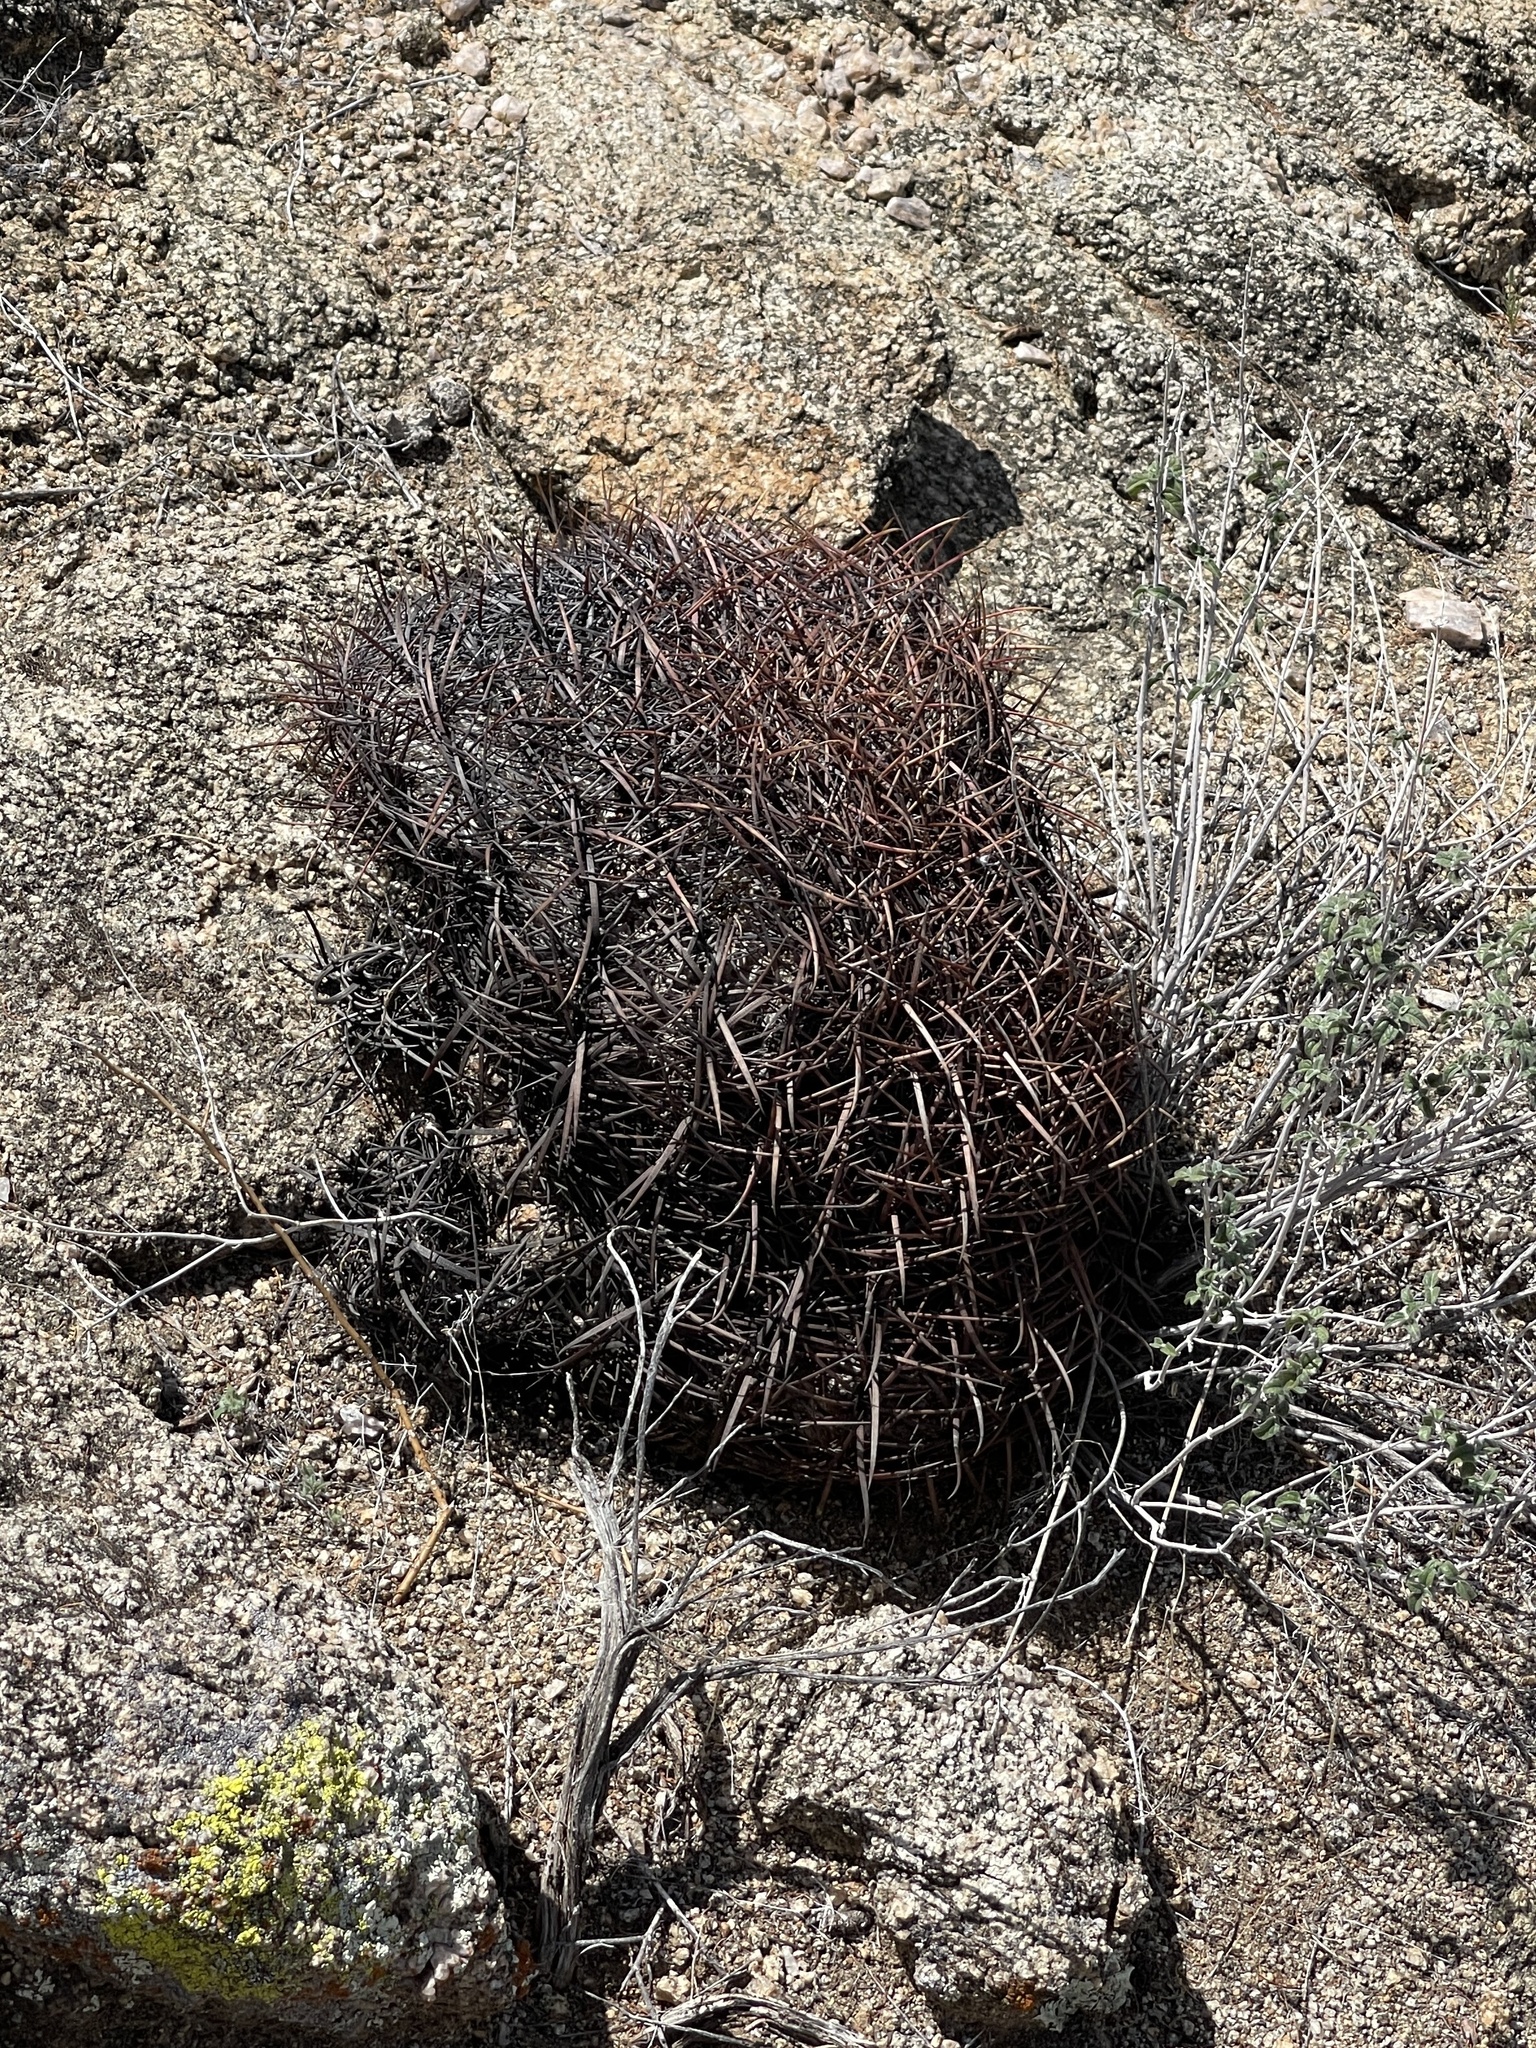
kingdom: Plantae
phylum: Tracheophyta
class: Magnoliopsida
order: Caryophyllales
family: Cactaceae
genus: Ferocactus
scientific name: Ferocactus cylindraceus
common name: California barrel cactus
